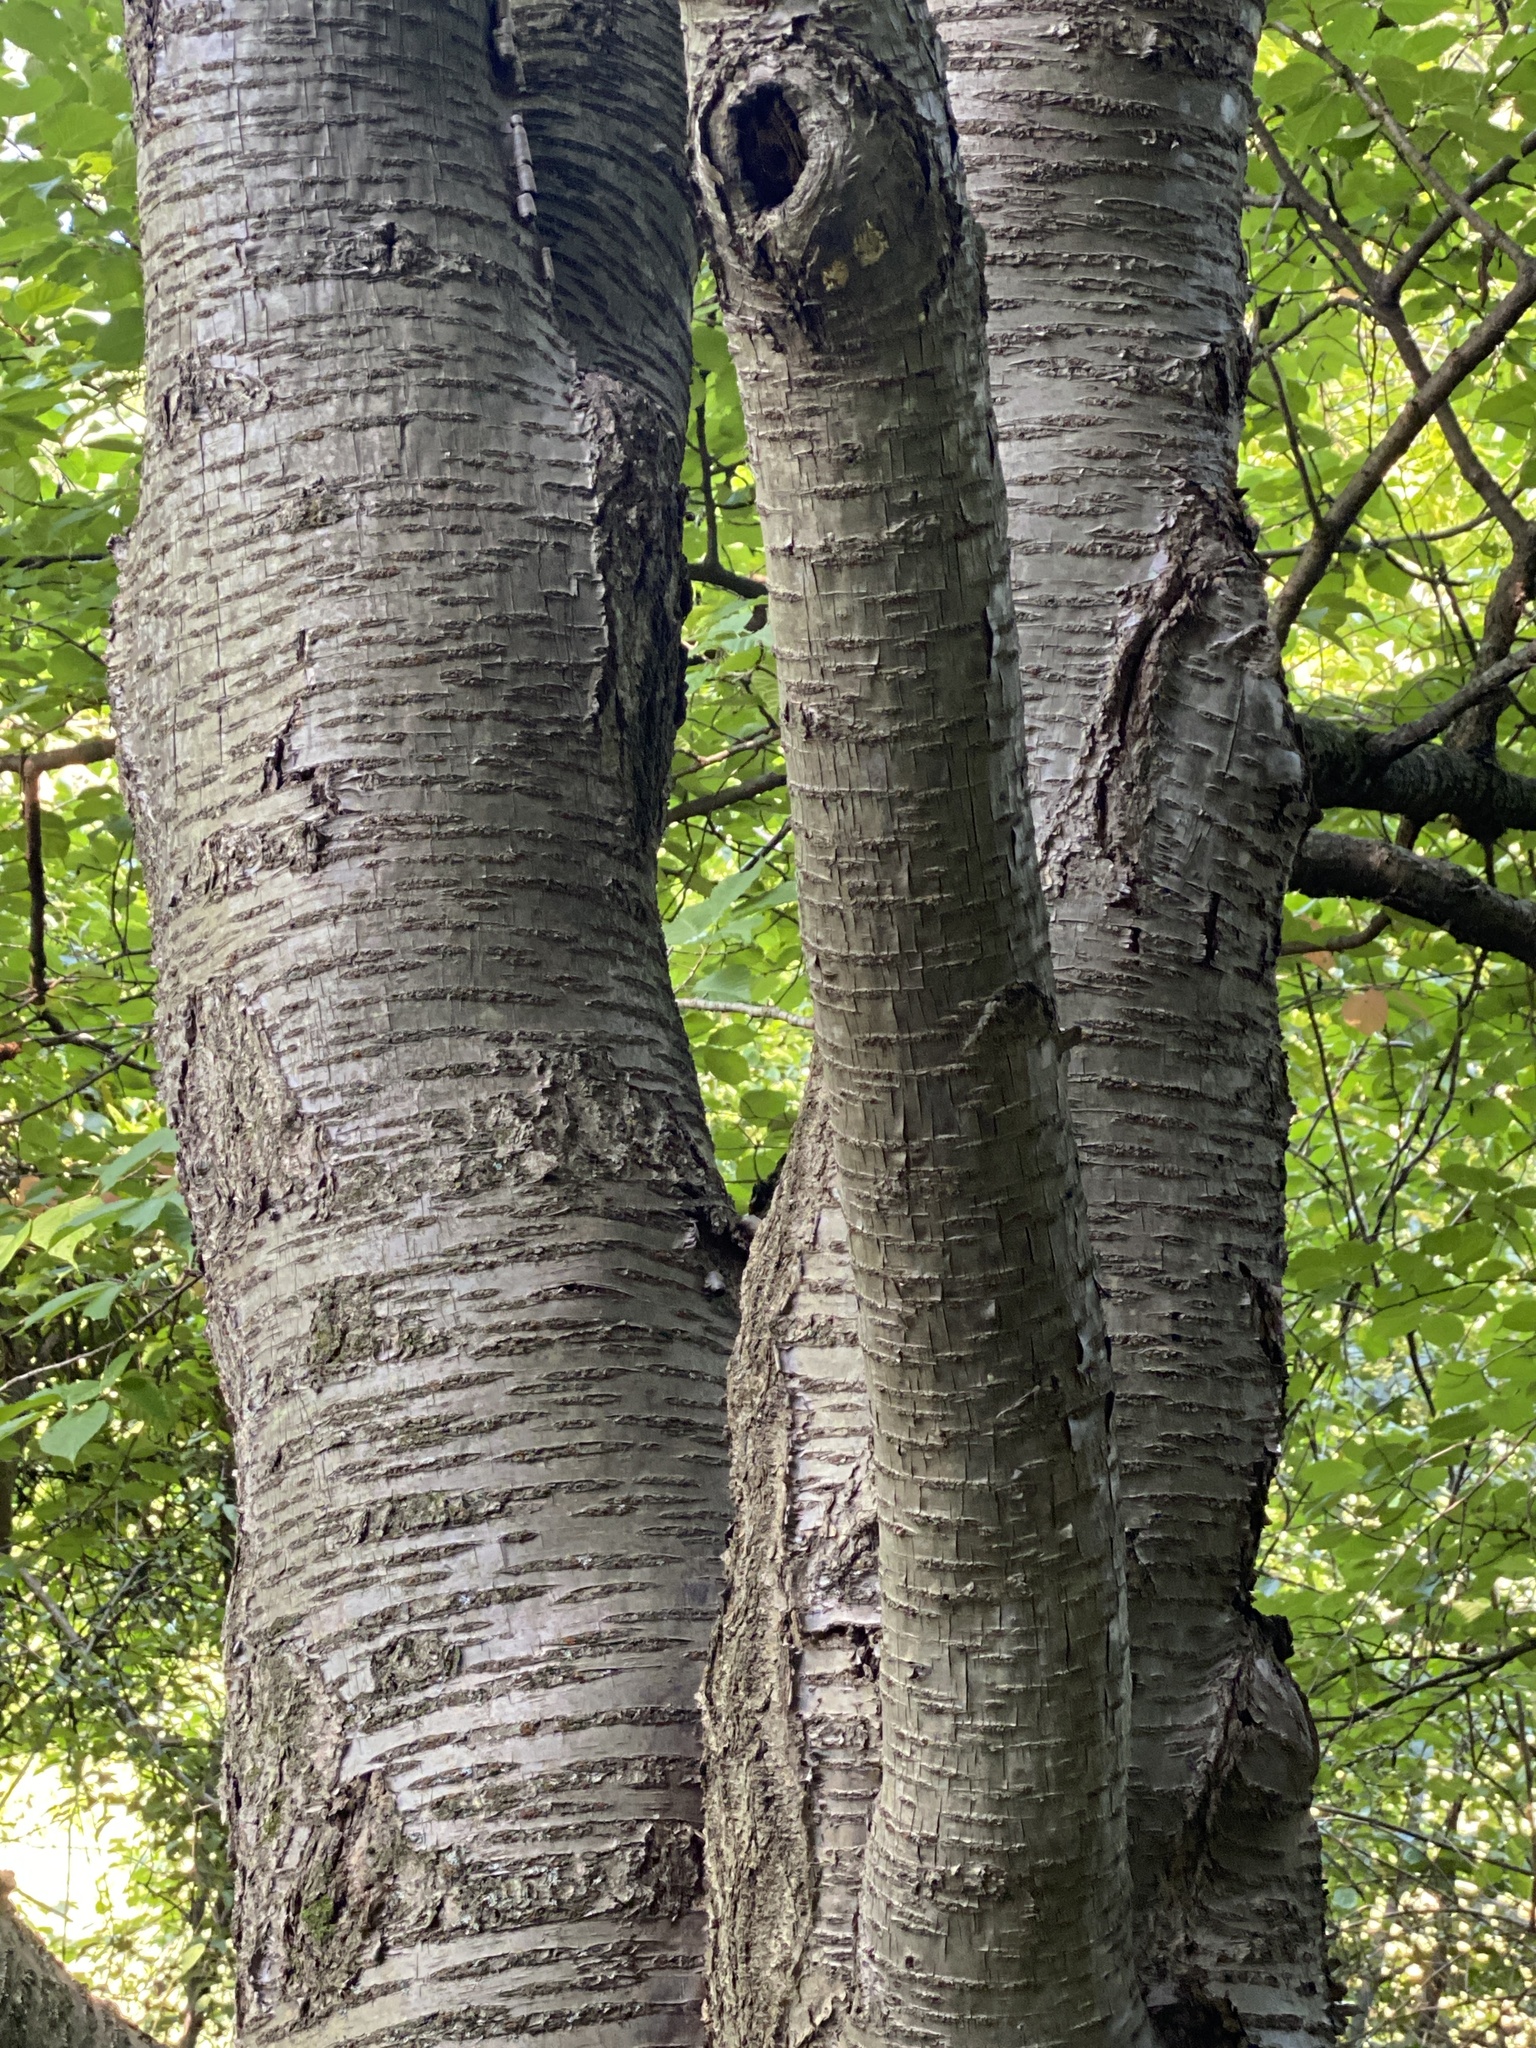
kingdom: Plantae
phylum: Tracheophyta
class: Magnoliopsida
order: Rosales
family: Rosaceae
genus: Prunus
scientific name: Prunus avium
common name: Sweet cherry
